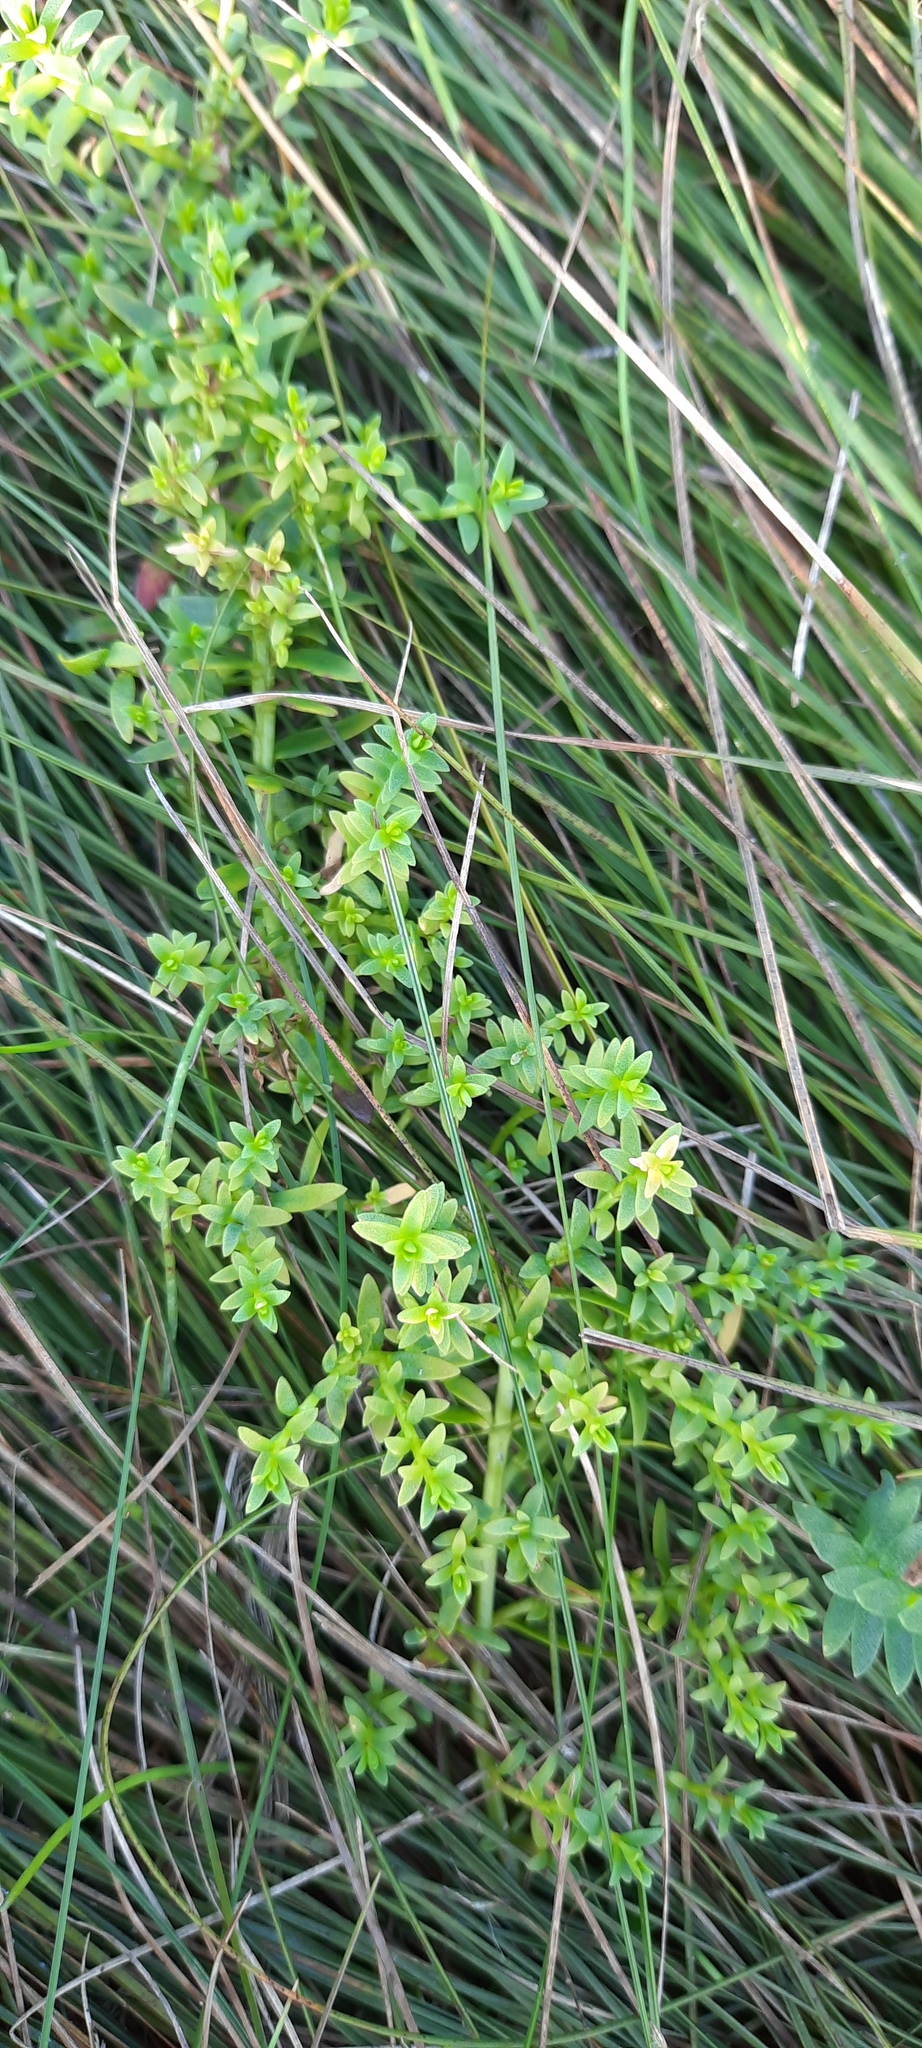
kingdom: Plantae
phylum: Tracheophyta
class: Magnoliopsida
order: Ericales
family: Primulaceae
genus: Lysimachia
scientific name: Lysimachia maritima
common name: Sea milkwort
